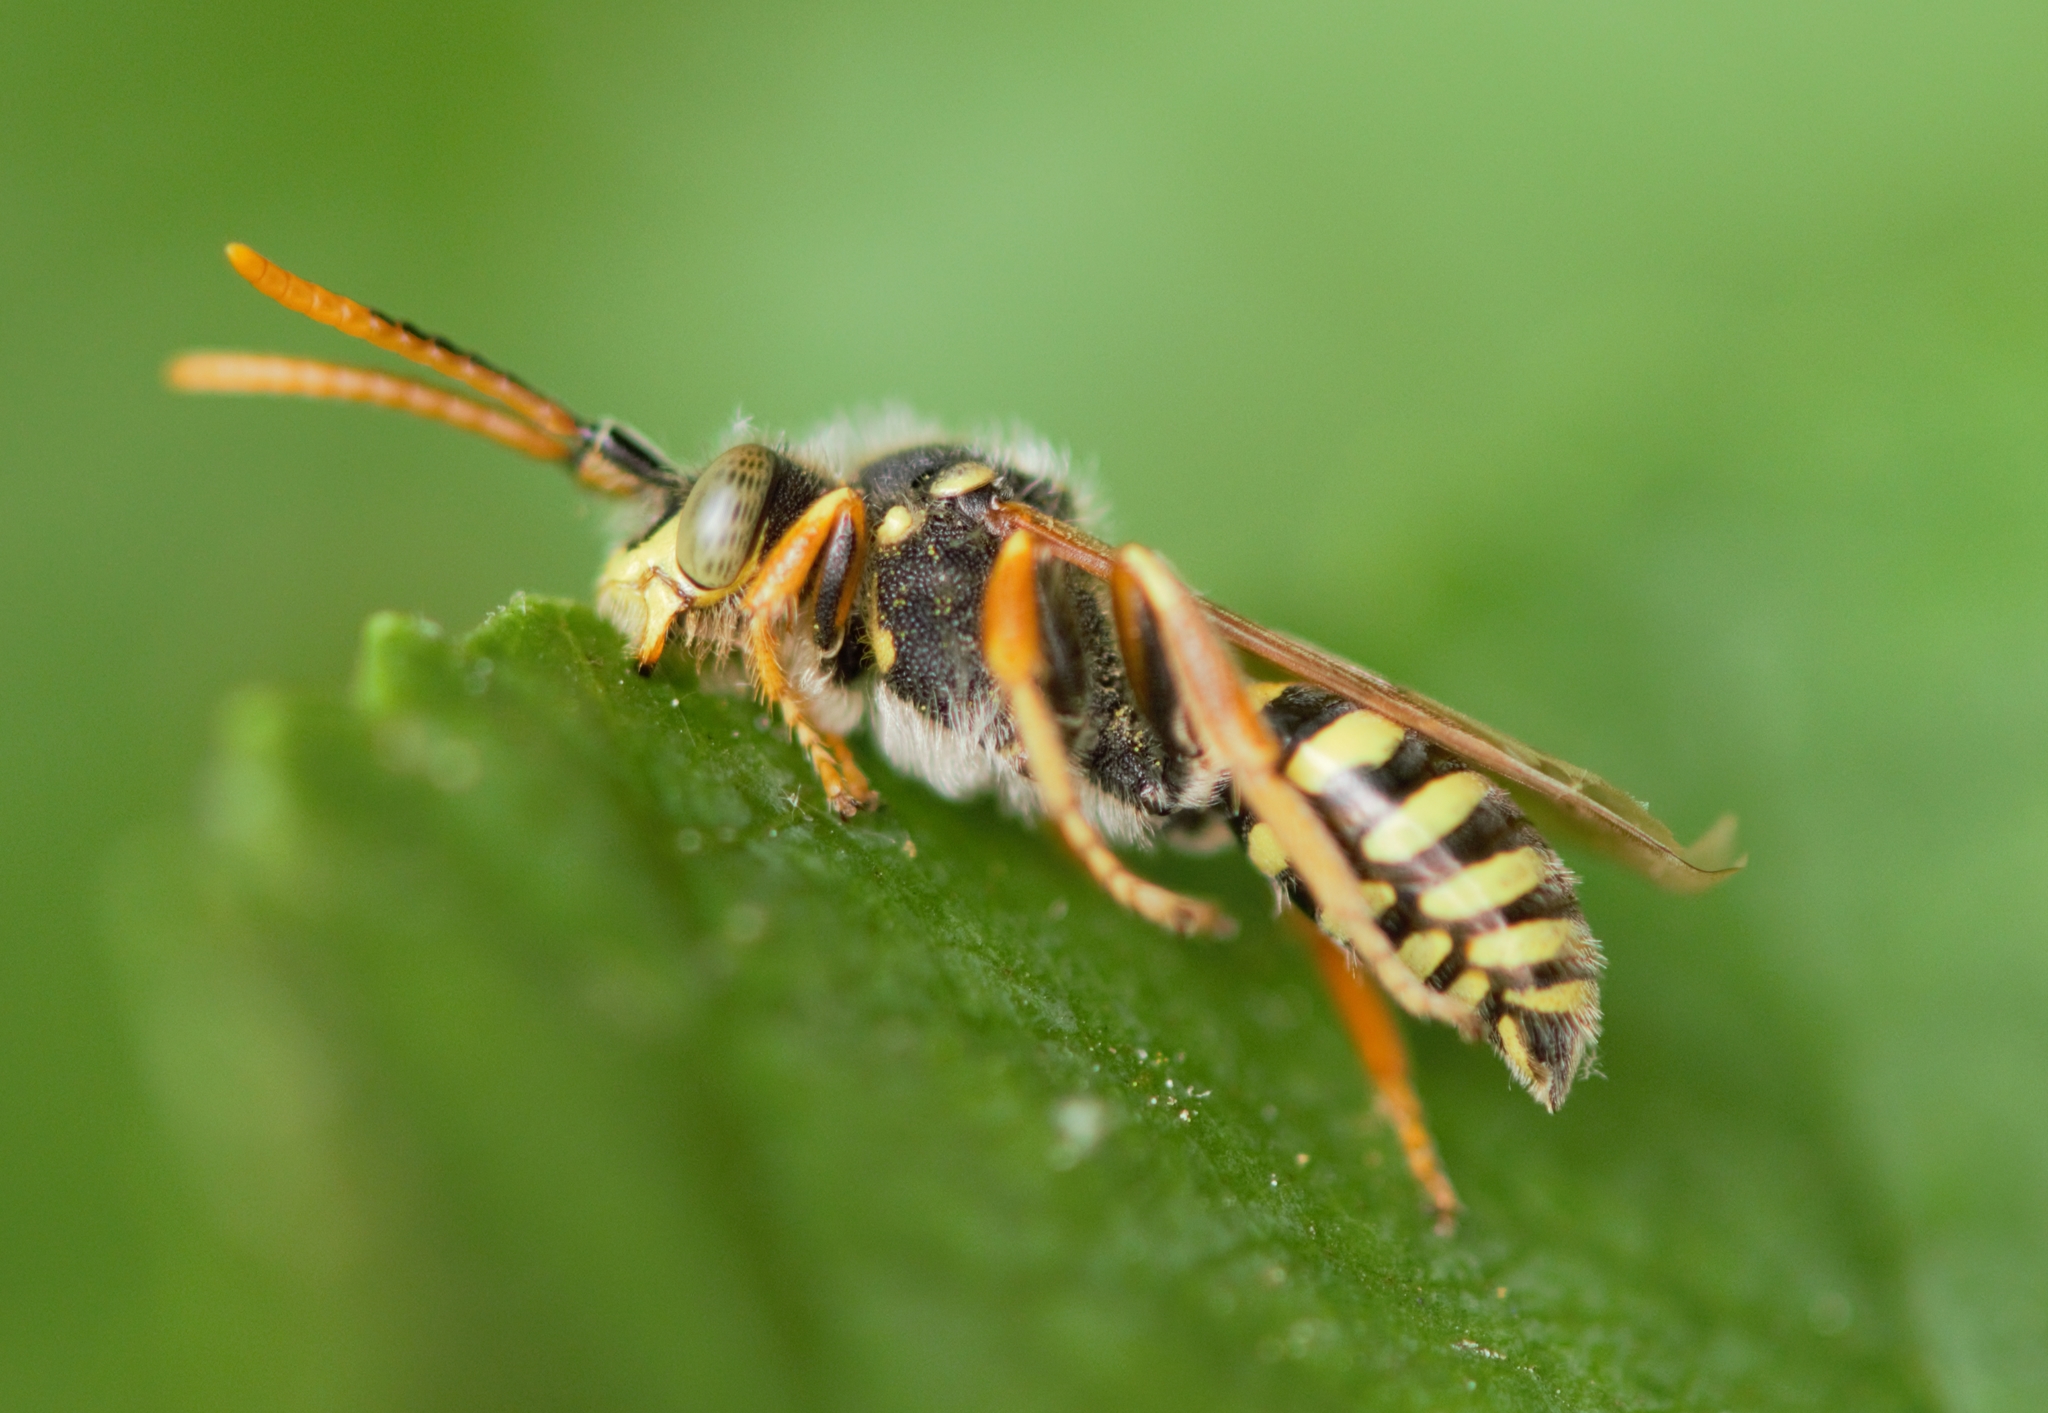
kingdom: Animalia
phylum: Arthropoda
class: Insecta
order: Hymenoptera
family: Apidae
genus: Nomada
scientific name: Nomada goodeniana
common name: Gooden's nomad bee
